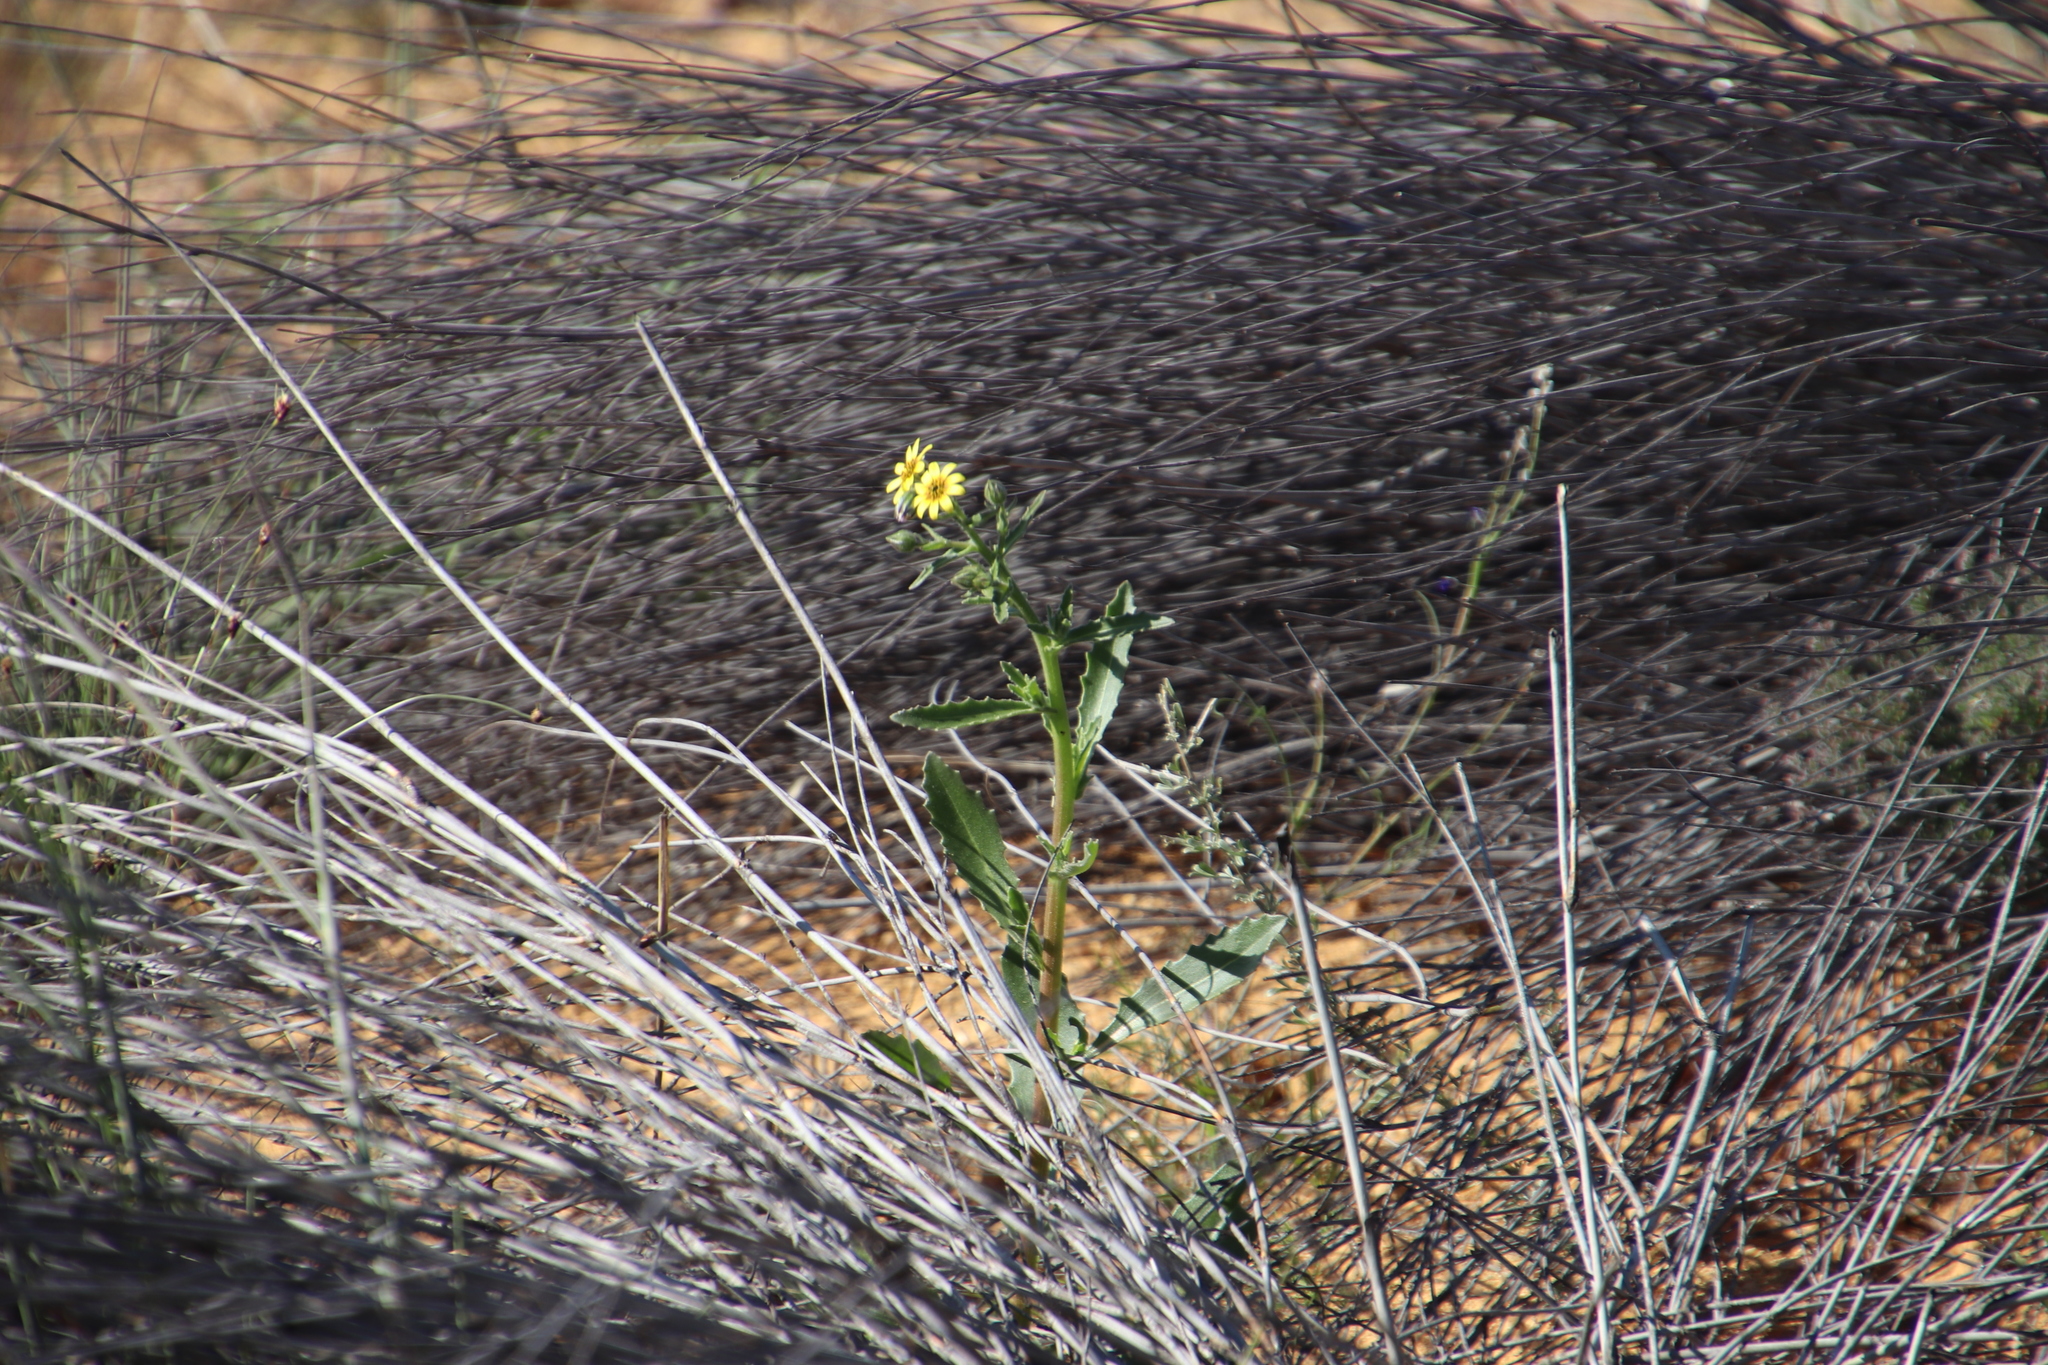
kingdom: Plantae
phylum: Tracheophyta
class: Magnoliopsida
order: Asterales
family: Asteraceae
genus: Osteospermum
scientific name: Osteospermum monstrosum
